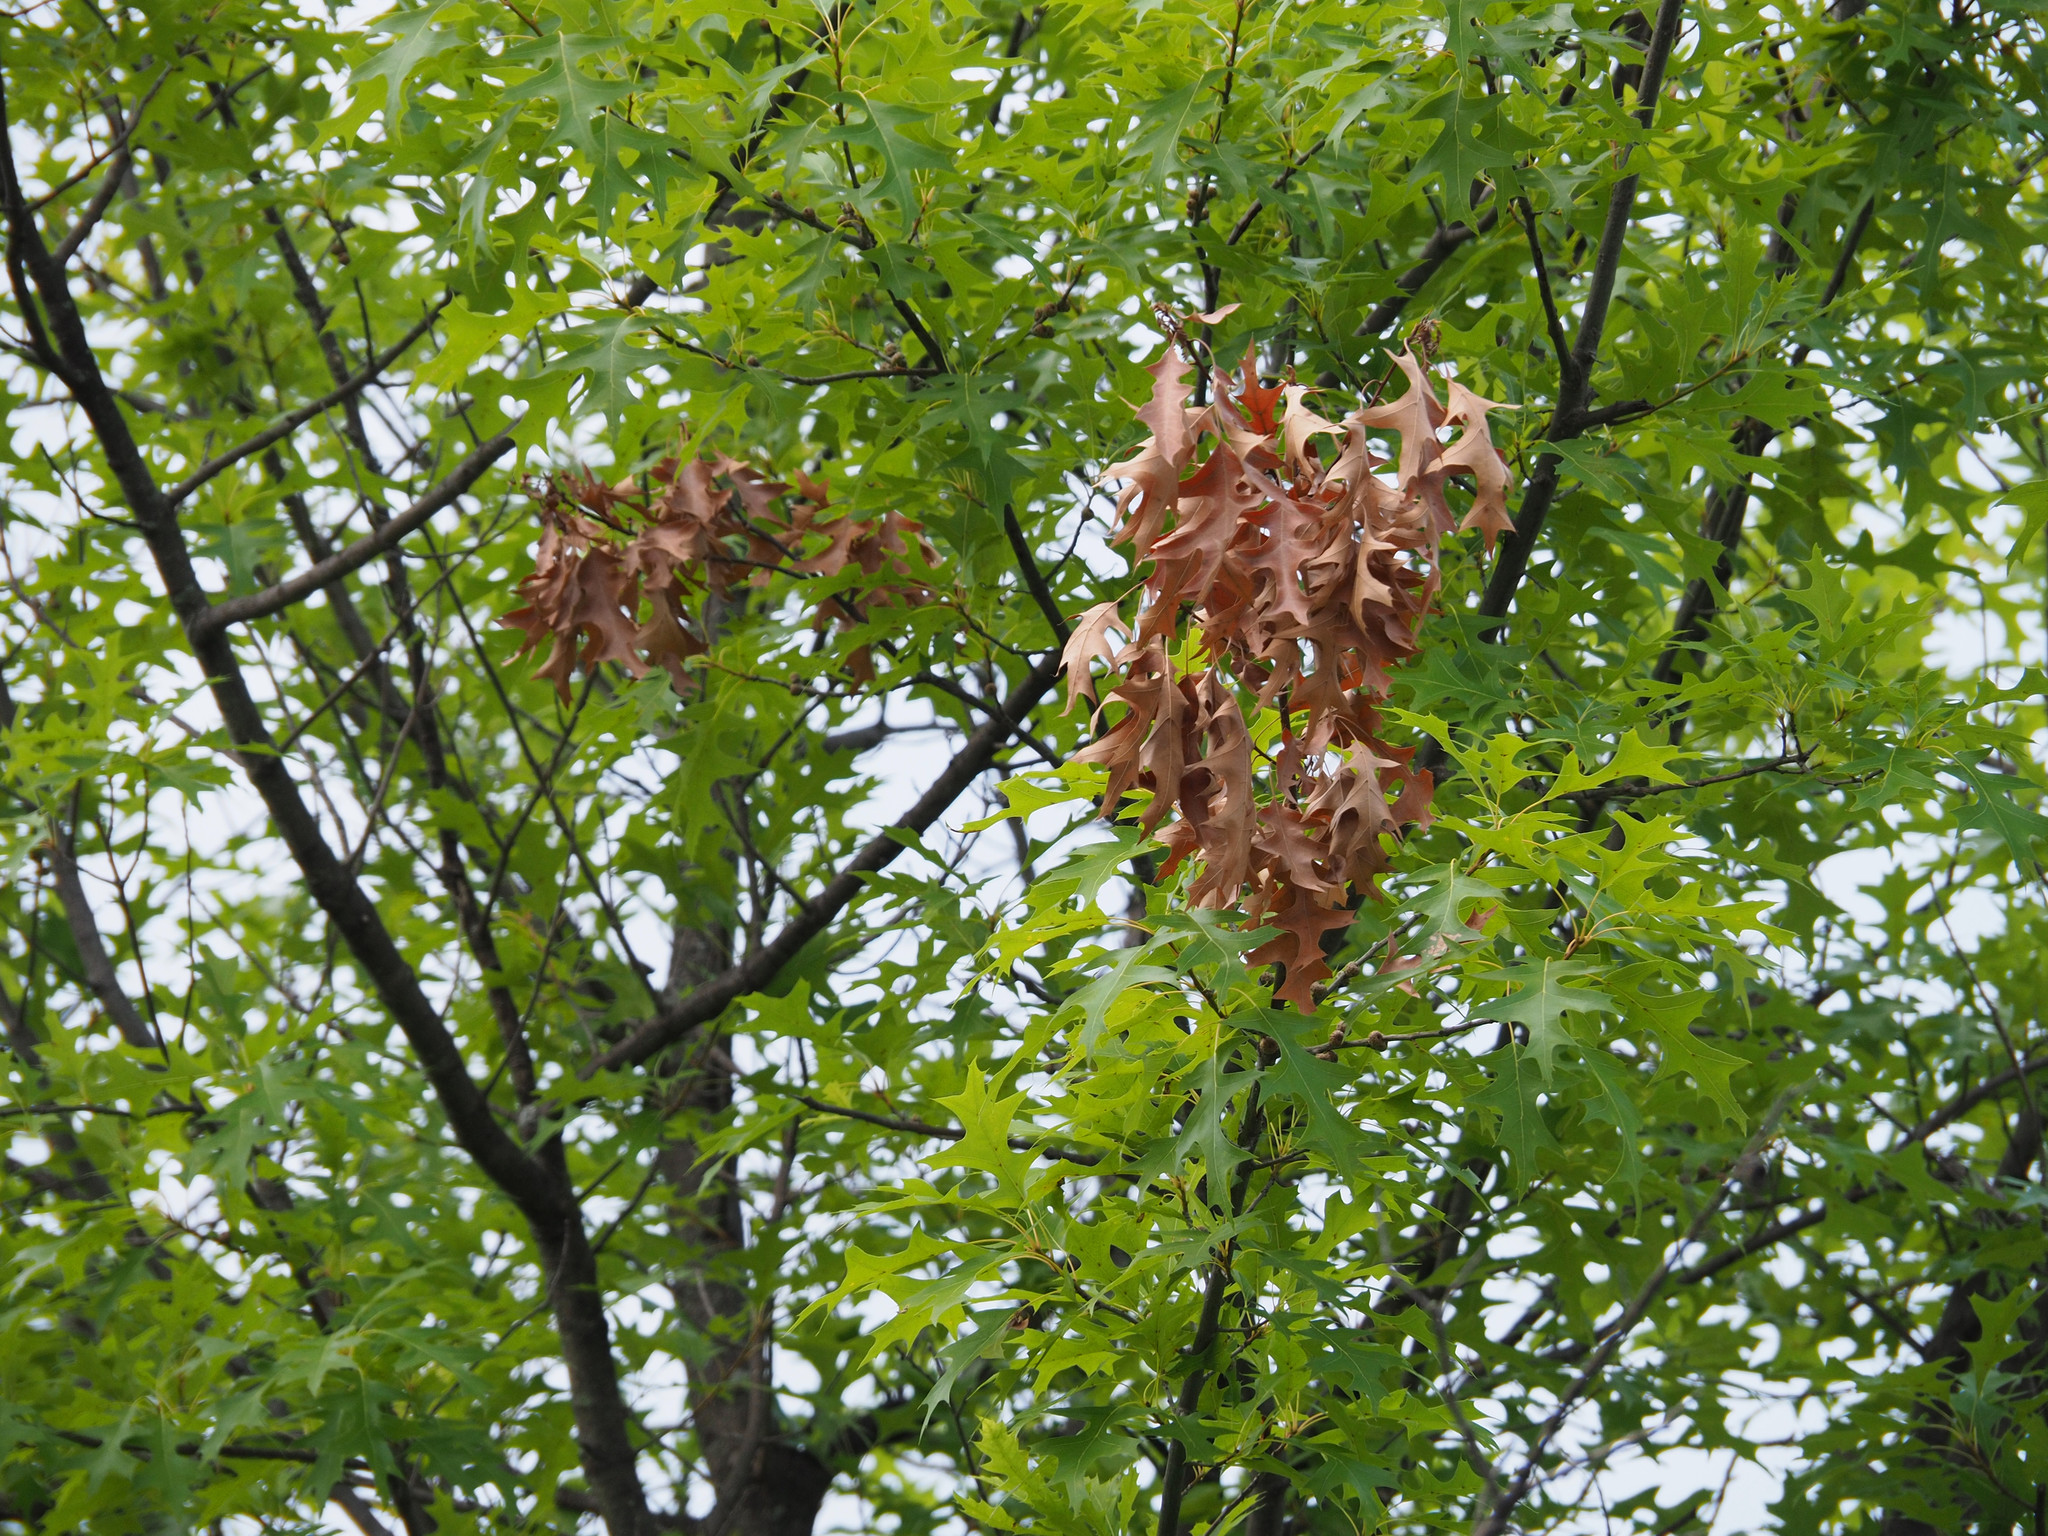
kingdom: Animalia
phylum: Arthropoda
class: Insecta
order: Hemiptera
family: Cicadidae
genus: Magicicada
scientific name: Magicicada
